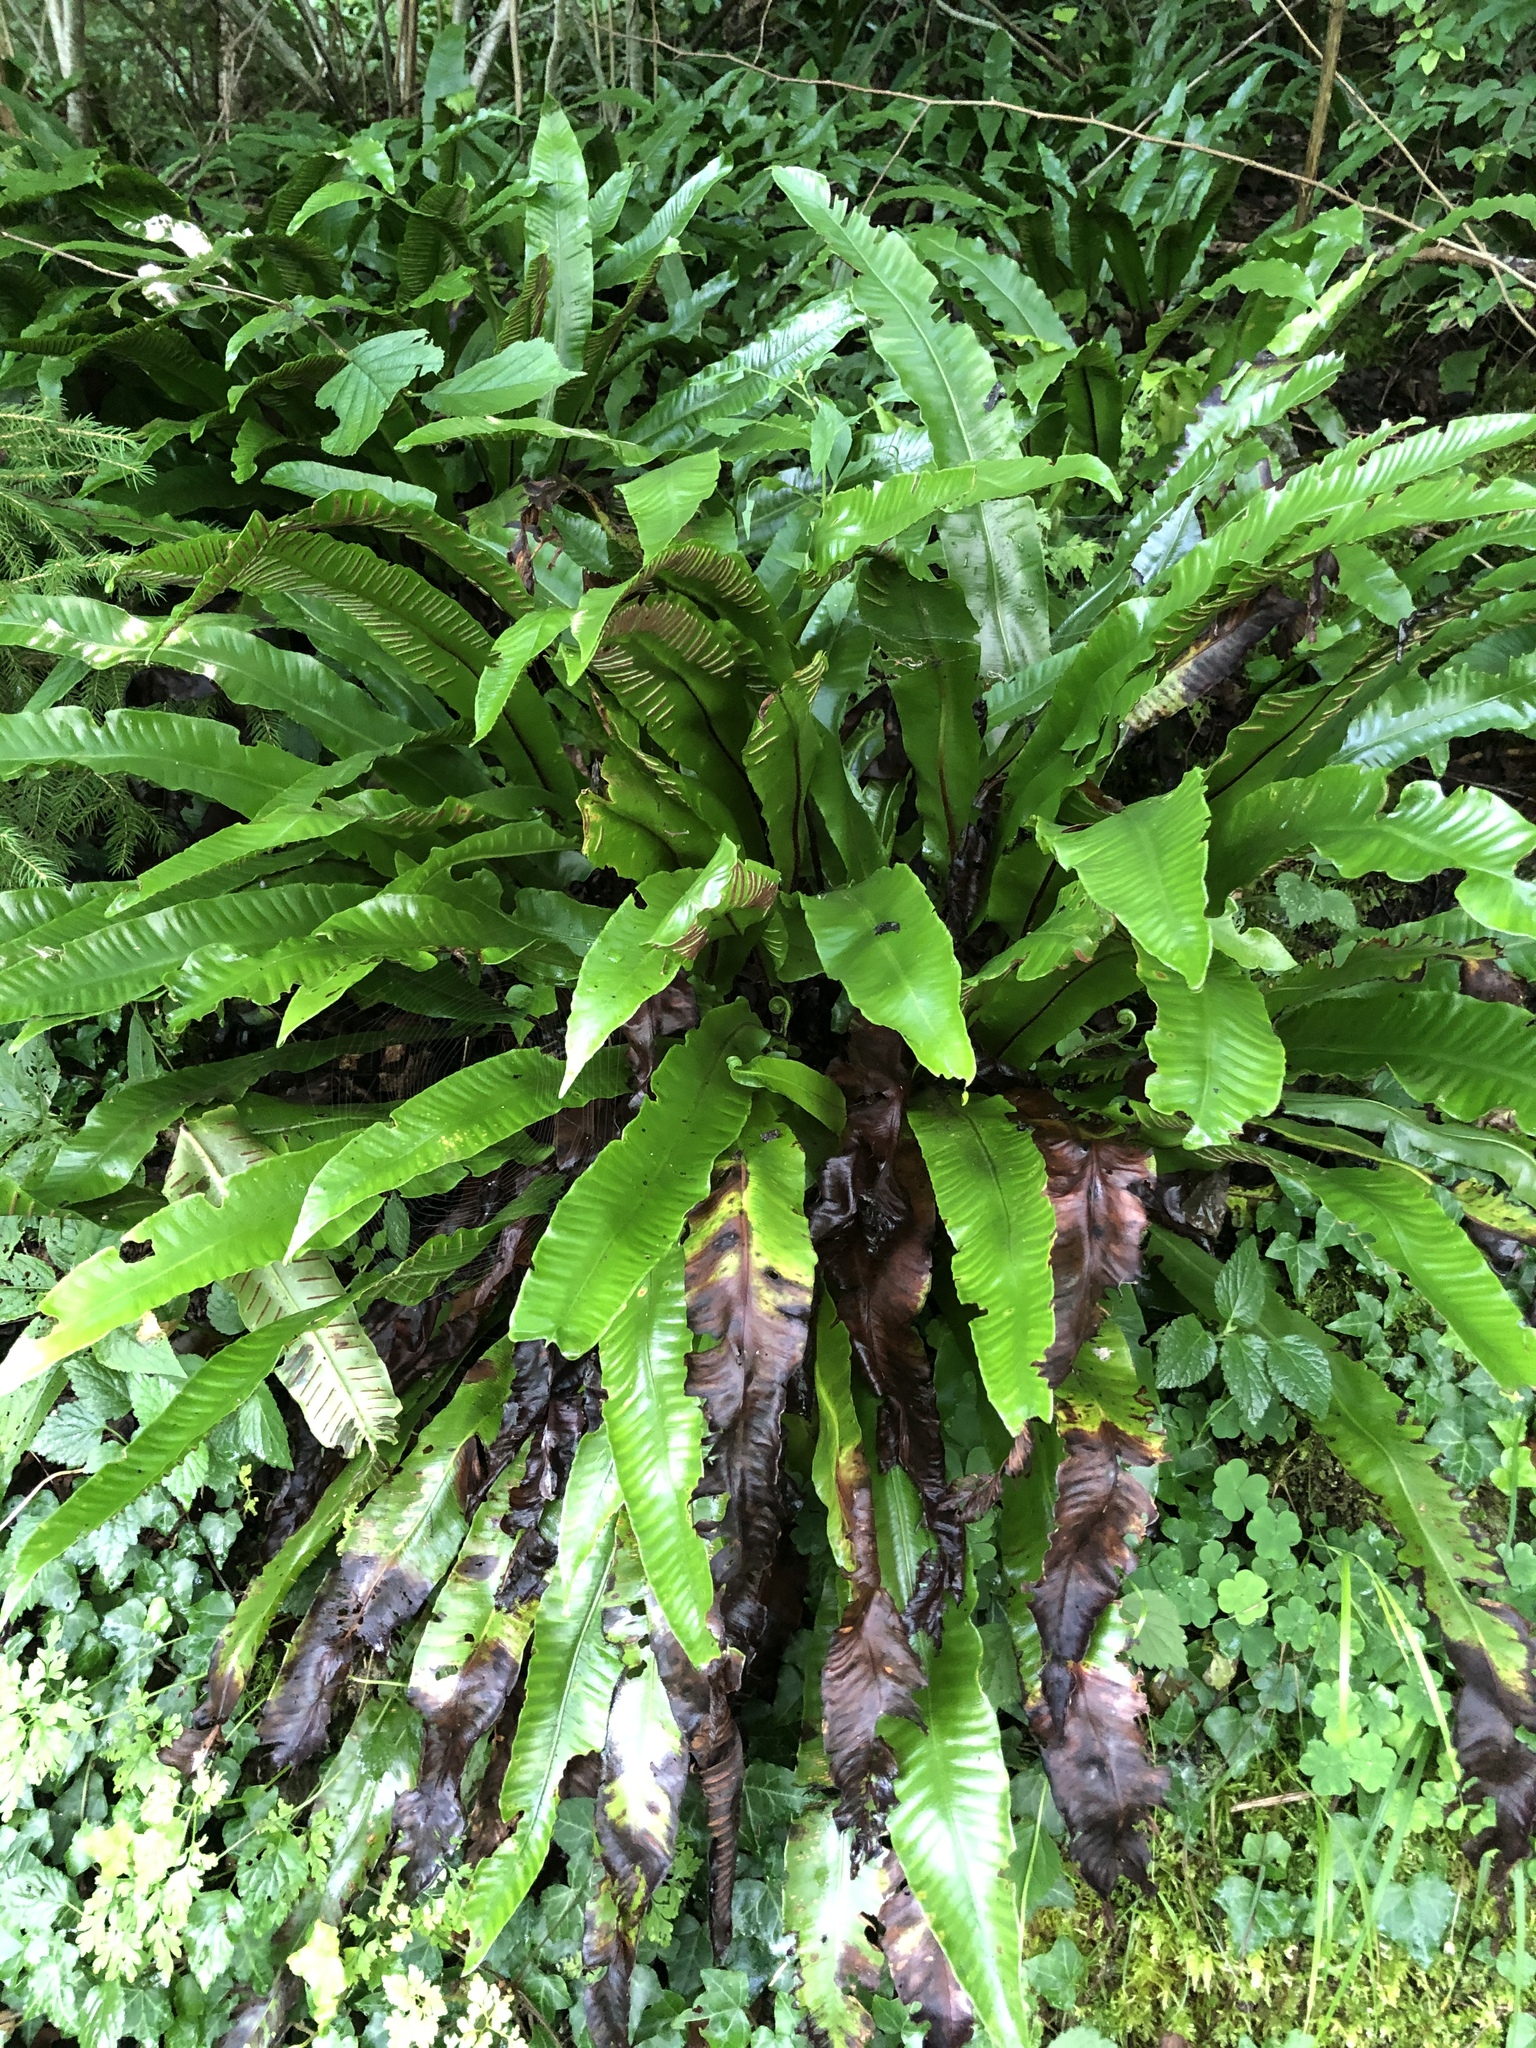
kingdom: Plantae
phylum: Tracheophyta
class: Polypodiopsida
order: Polypodiales
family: Aspleniaceae
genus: Asplenium
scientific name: Asplenium scolopendrium
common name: Hart's-tongue fern
